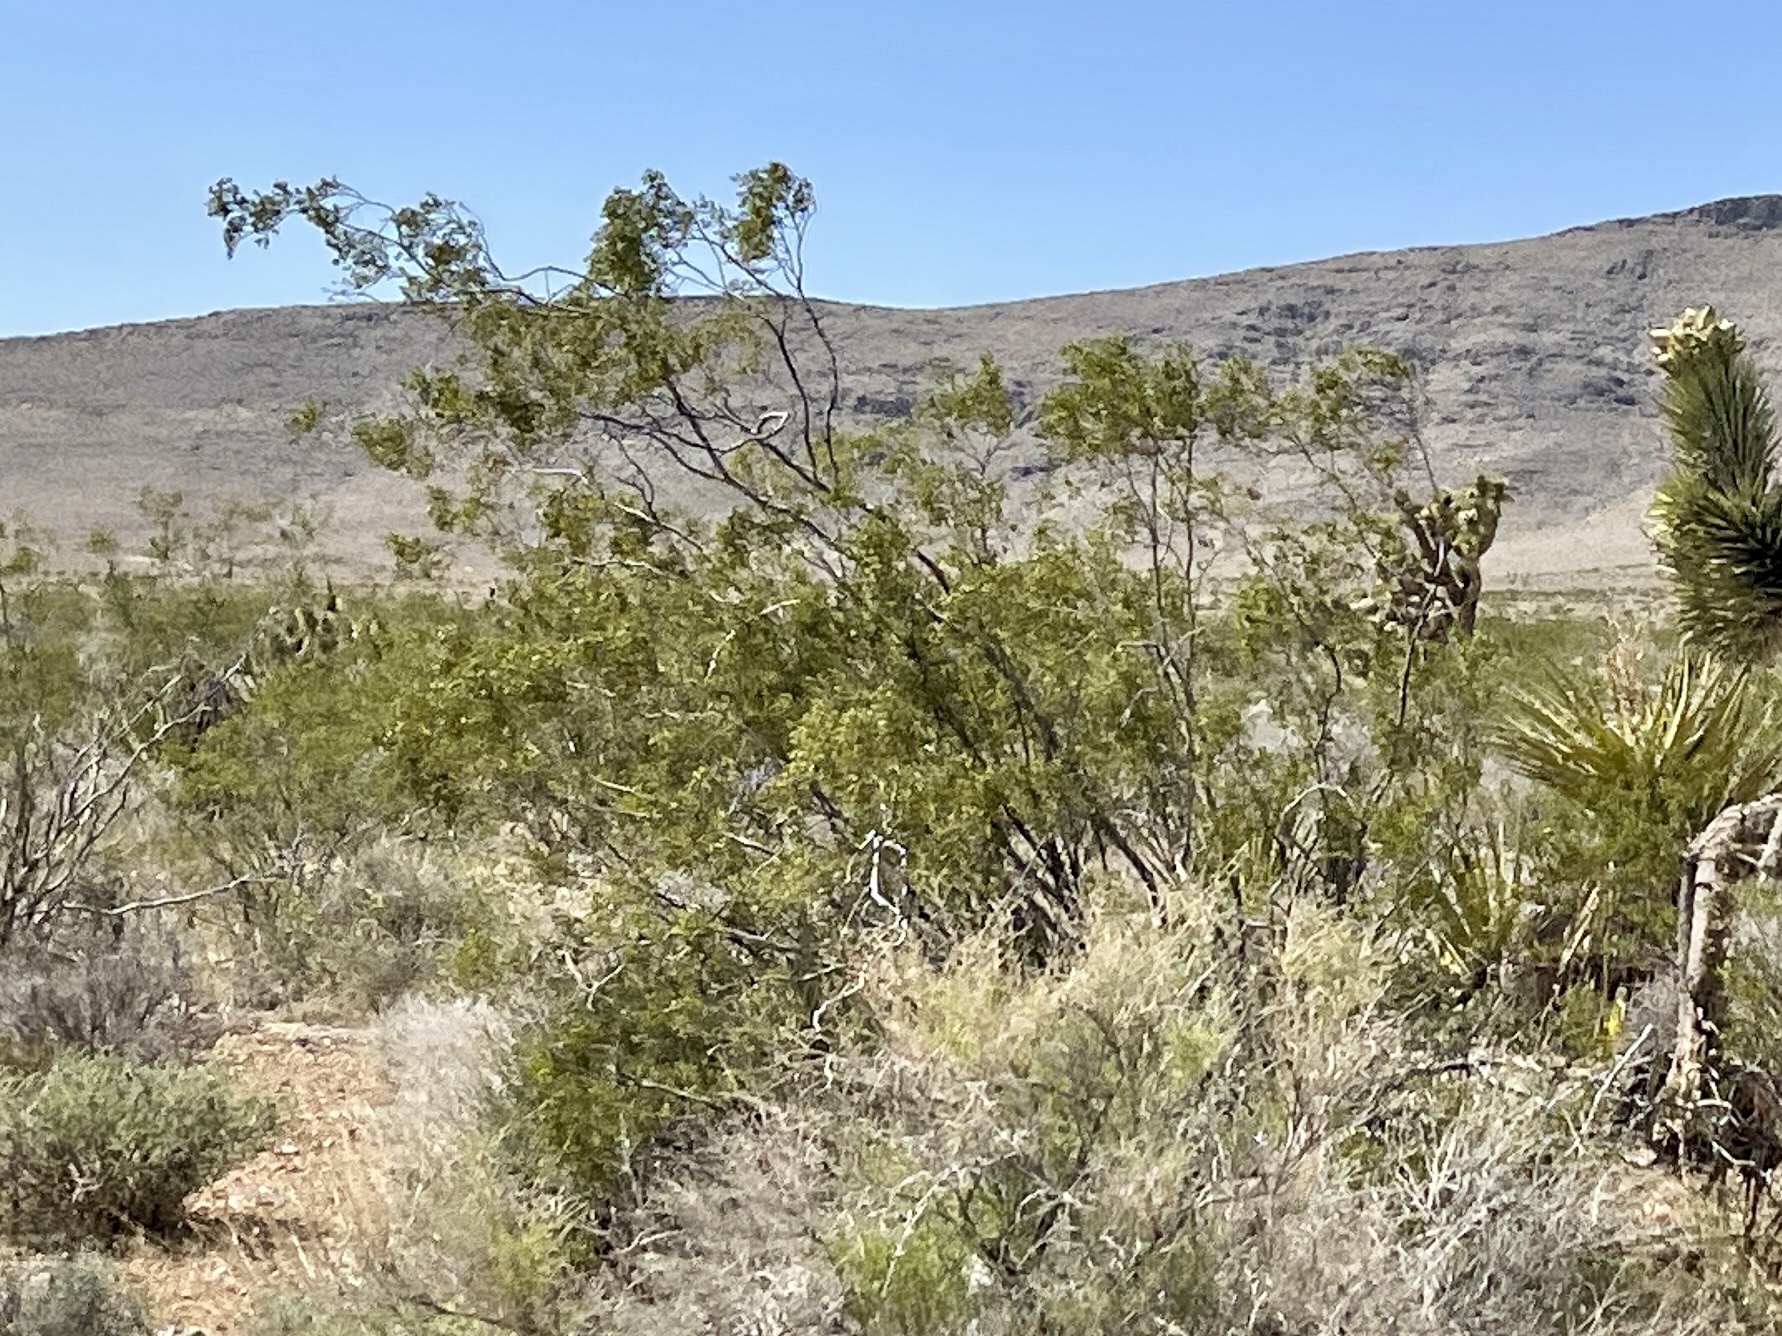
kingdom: Plantae
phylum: Tracheophyta
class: Magnoliopsida
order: Zygophyllales
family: Zygophyllaceae
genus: Larrea
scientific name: Larrea tridentata
